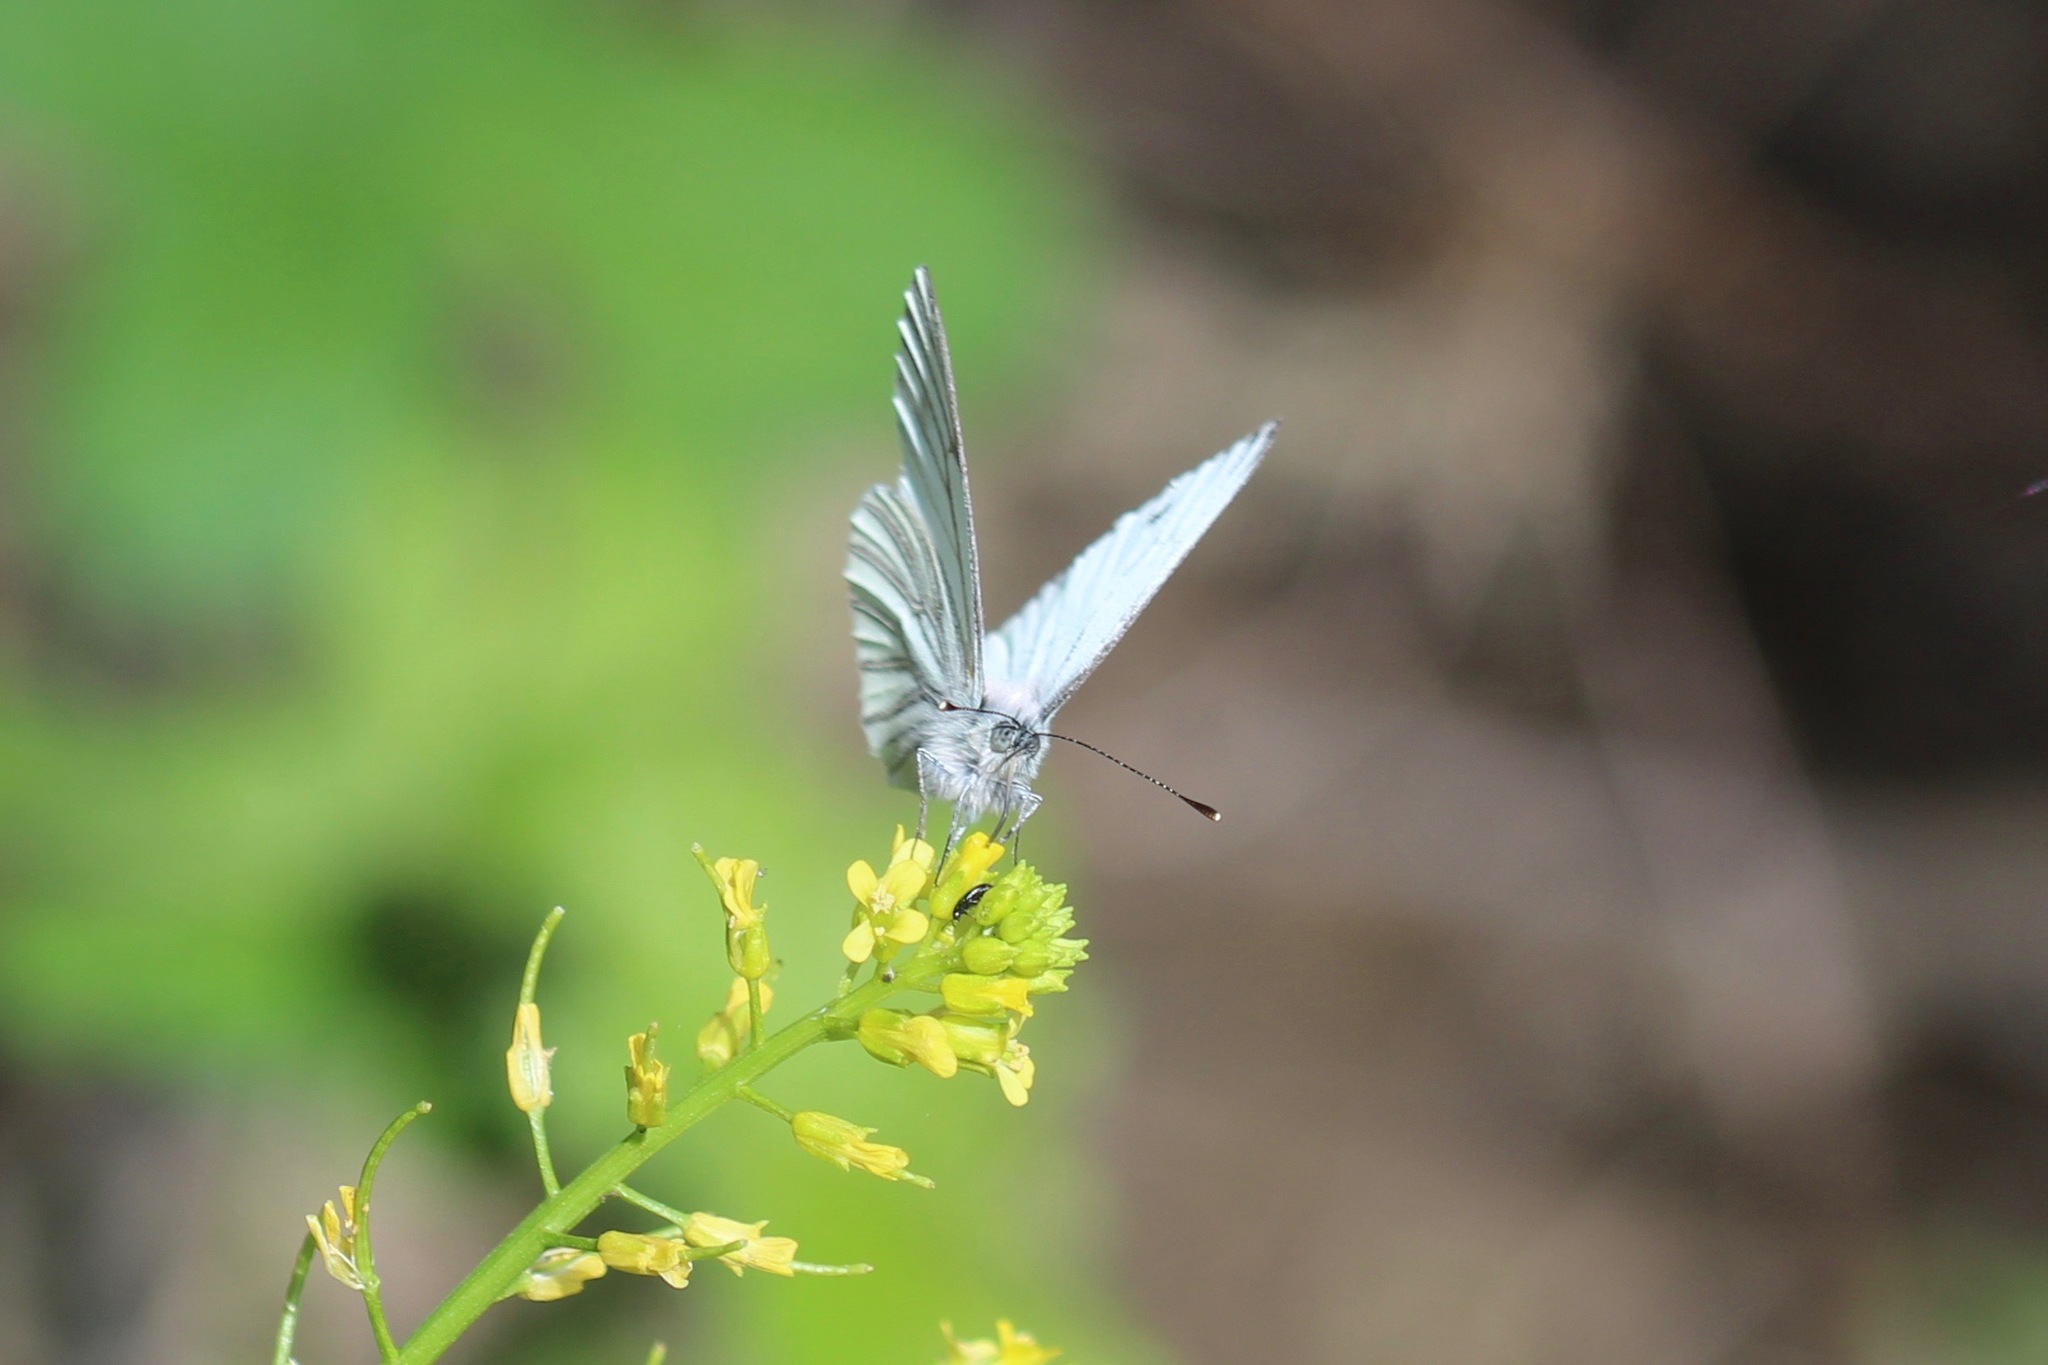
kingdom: Animalia
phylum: Arthropoda
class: Insecta
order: Lepidoptera
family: Pieridae
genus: Pieris
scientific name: Pieris marginalis
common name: Margined white
